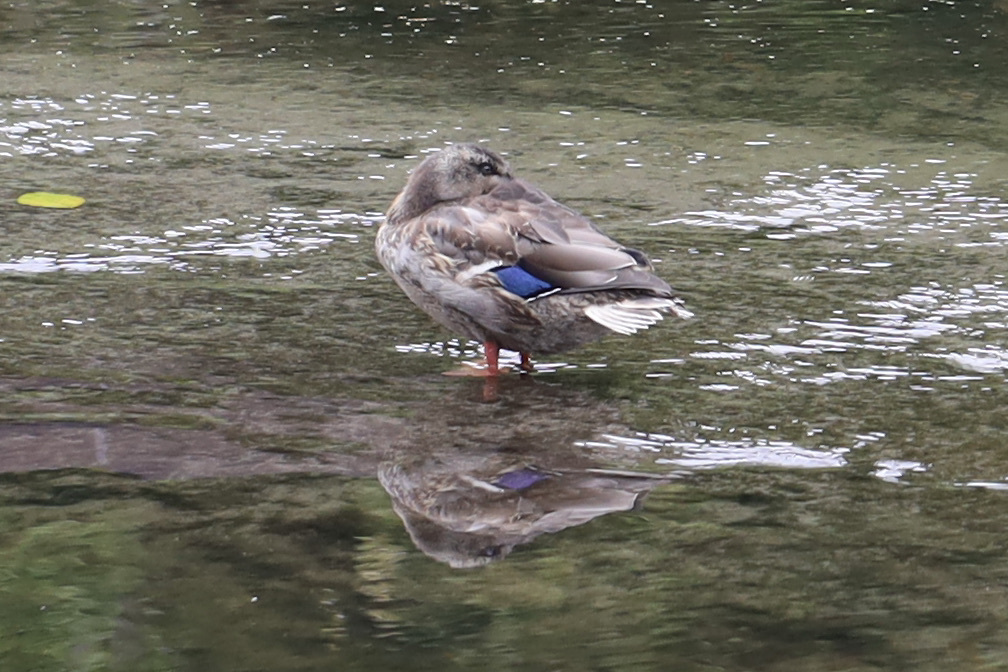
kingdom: Animalia
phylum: Chordata
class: Aves
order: Anseriformes
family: Anatidae
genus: Anas
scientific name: Anas platyrhynchos
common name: Mallard
